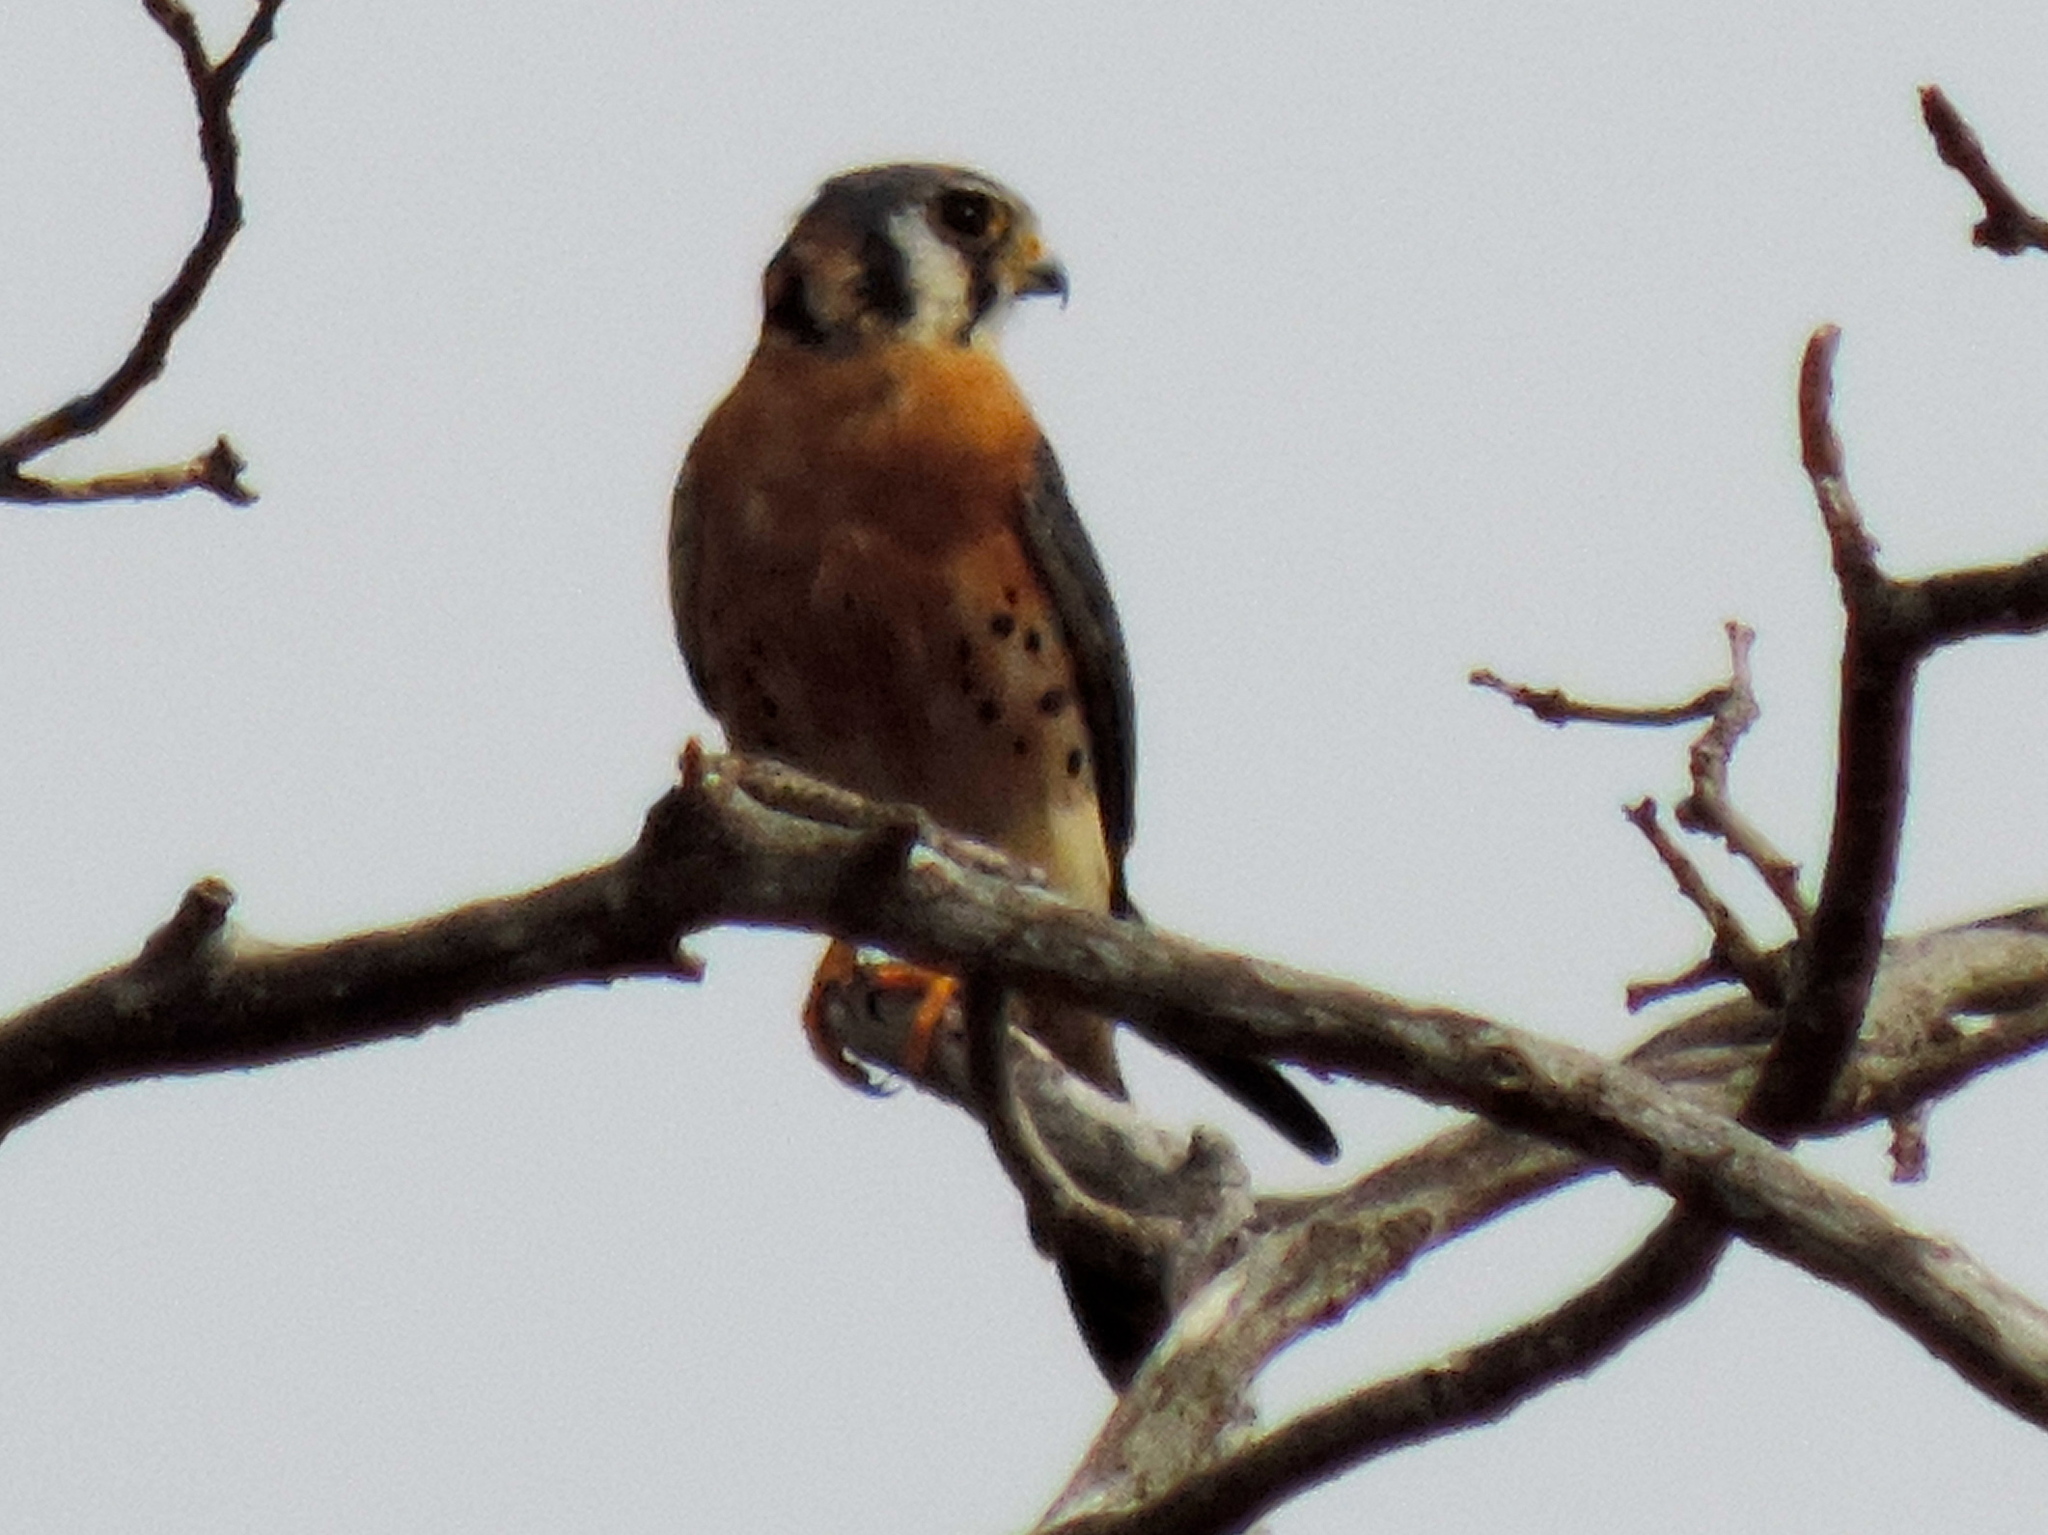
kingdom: Animalia
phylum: Chordata
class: Aves
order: Falconiformes
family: Falconidae
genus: Falco
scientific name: Falco sparverius
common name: American kestrel
